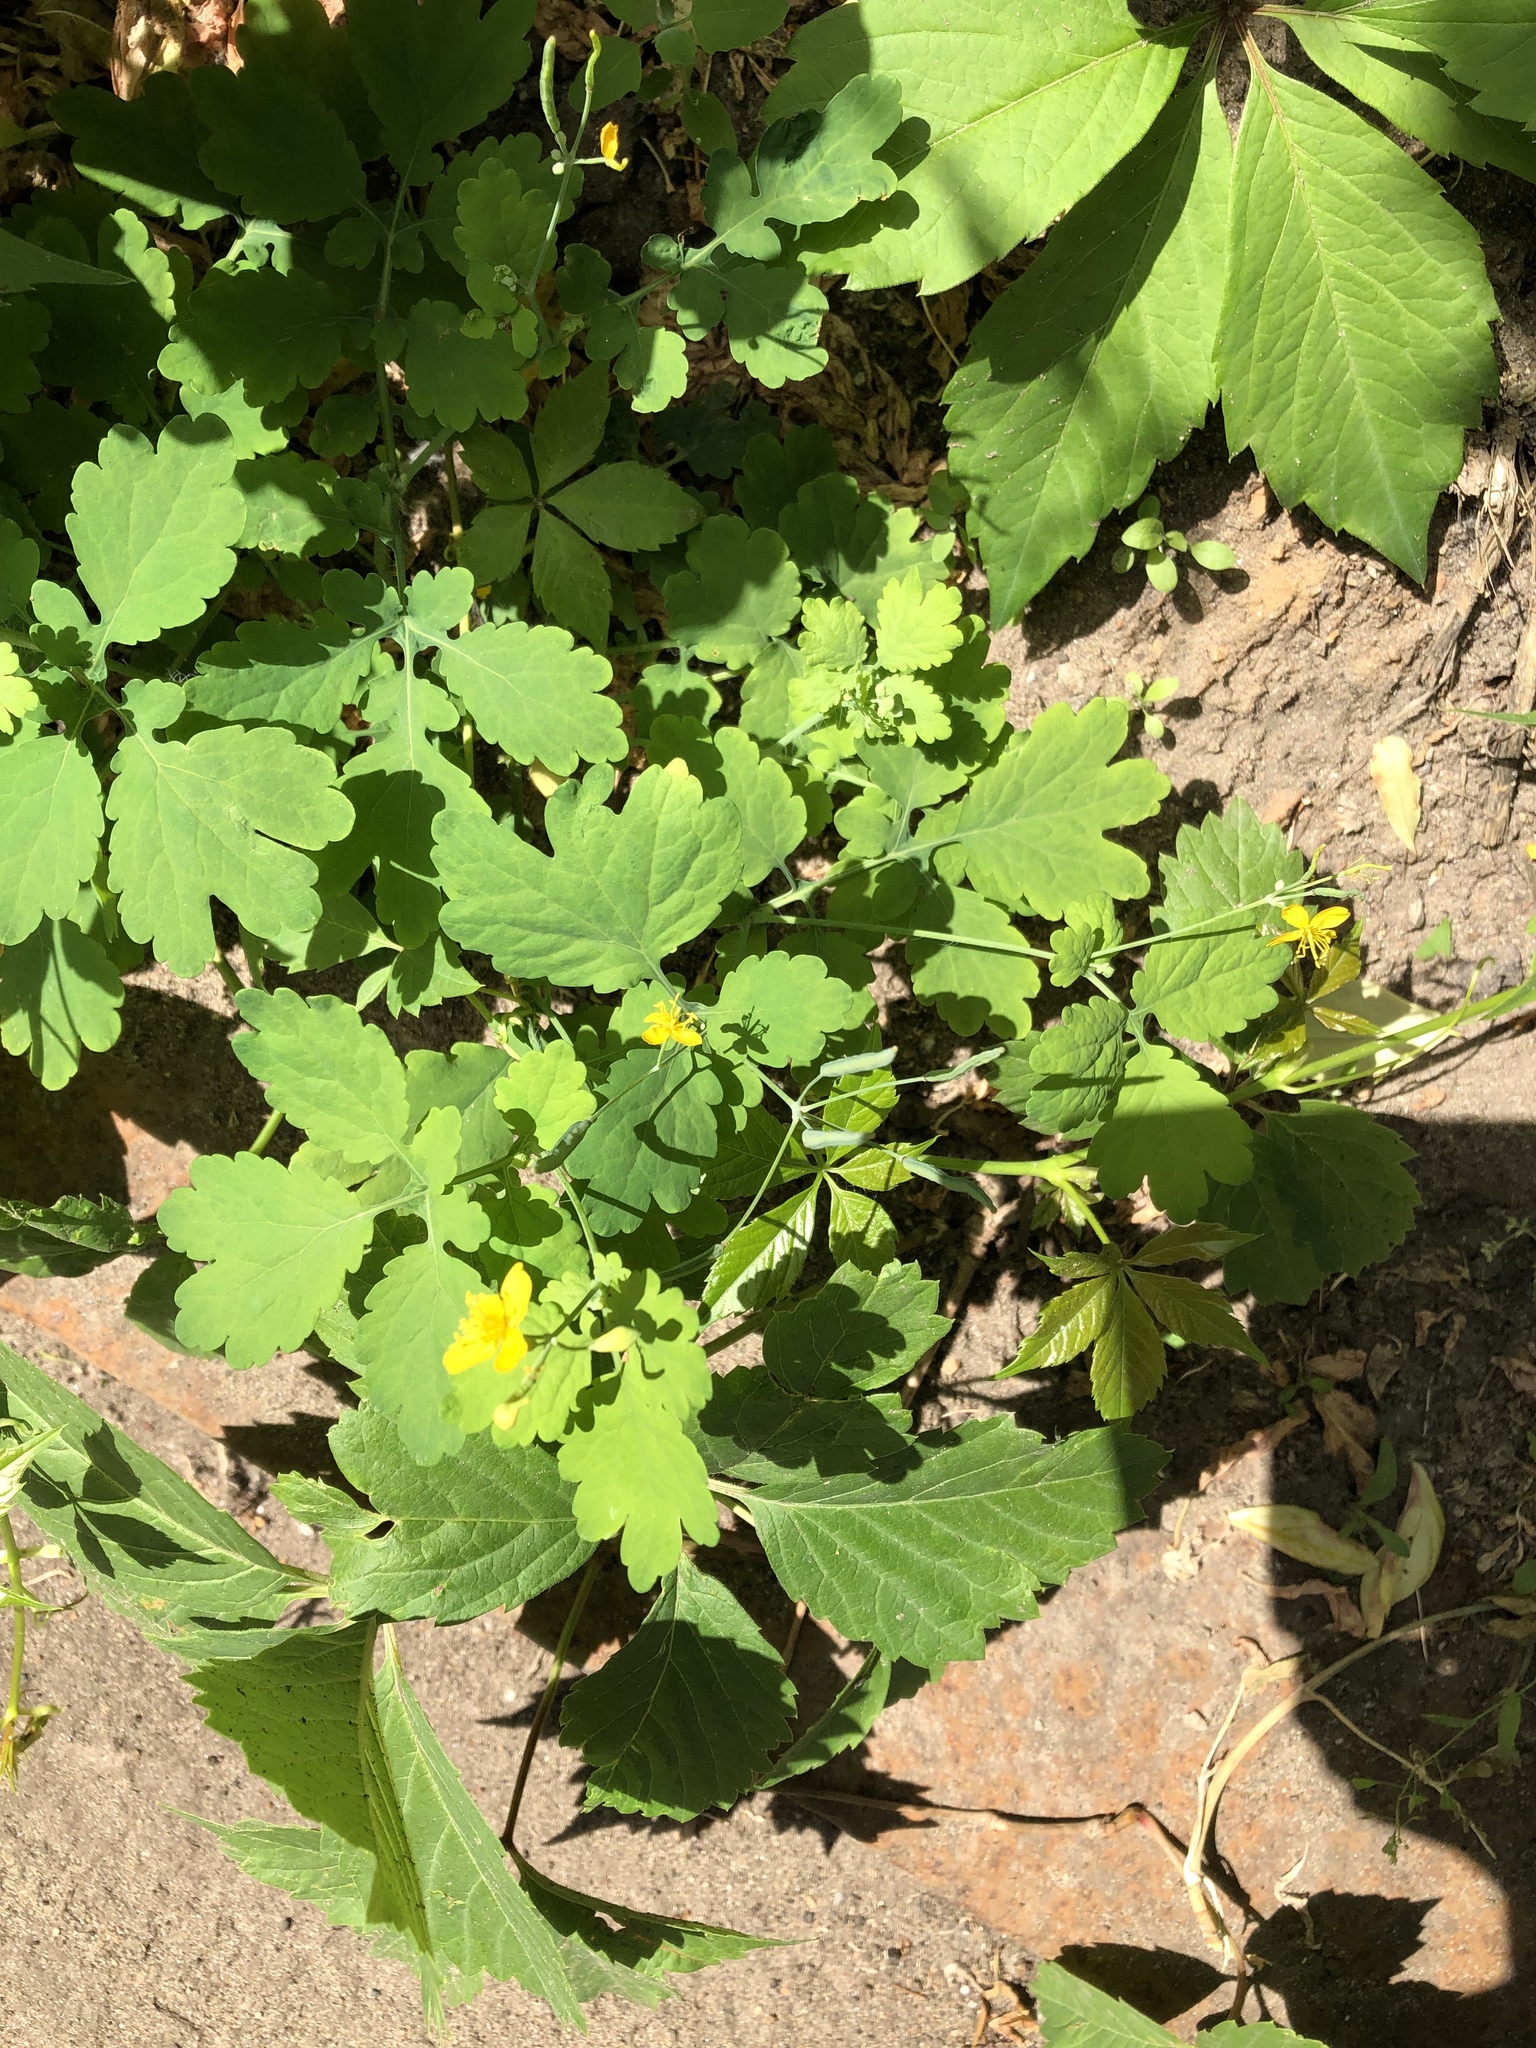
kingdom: Plantae
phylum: Tracheophyta
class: Magnoliopsida
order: Ranunculales
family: Papaveraceae
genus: Chelidonium
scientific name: Chelidonium majus
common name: Greater celandine
